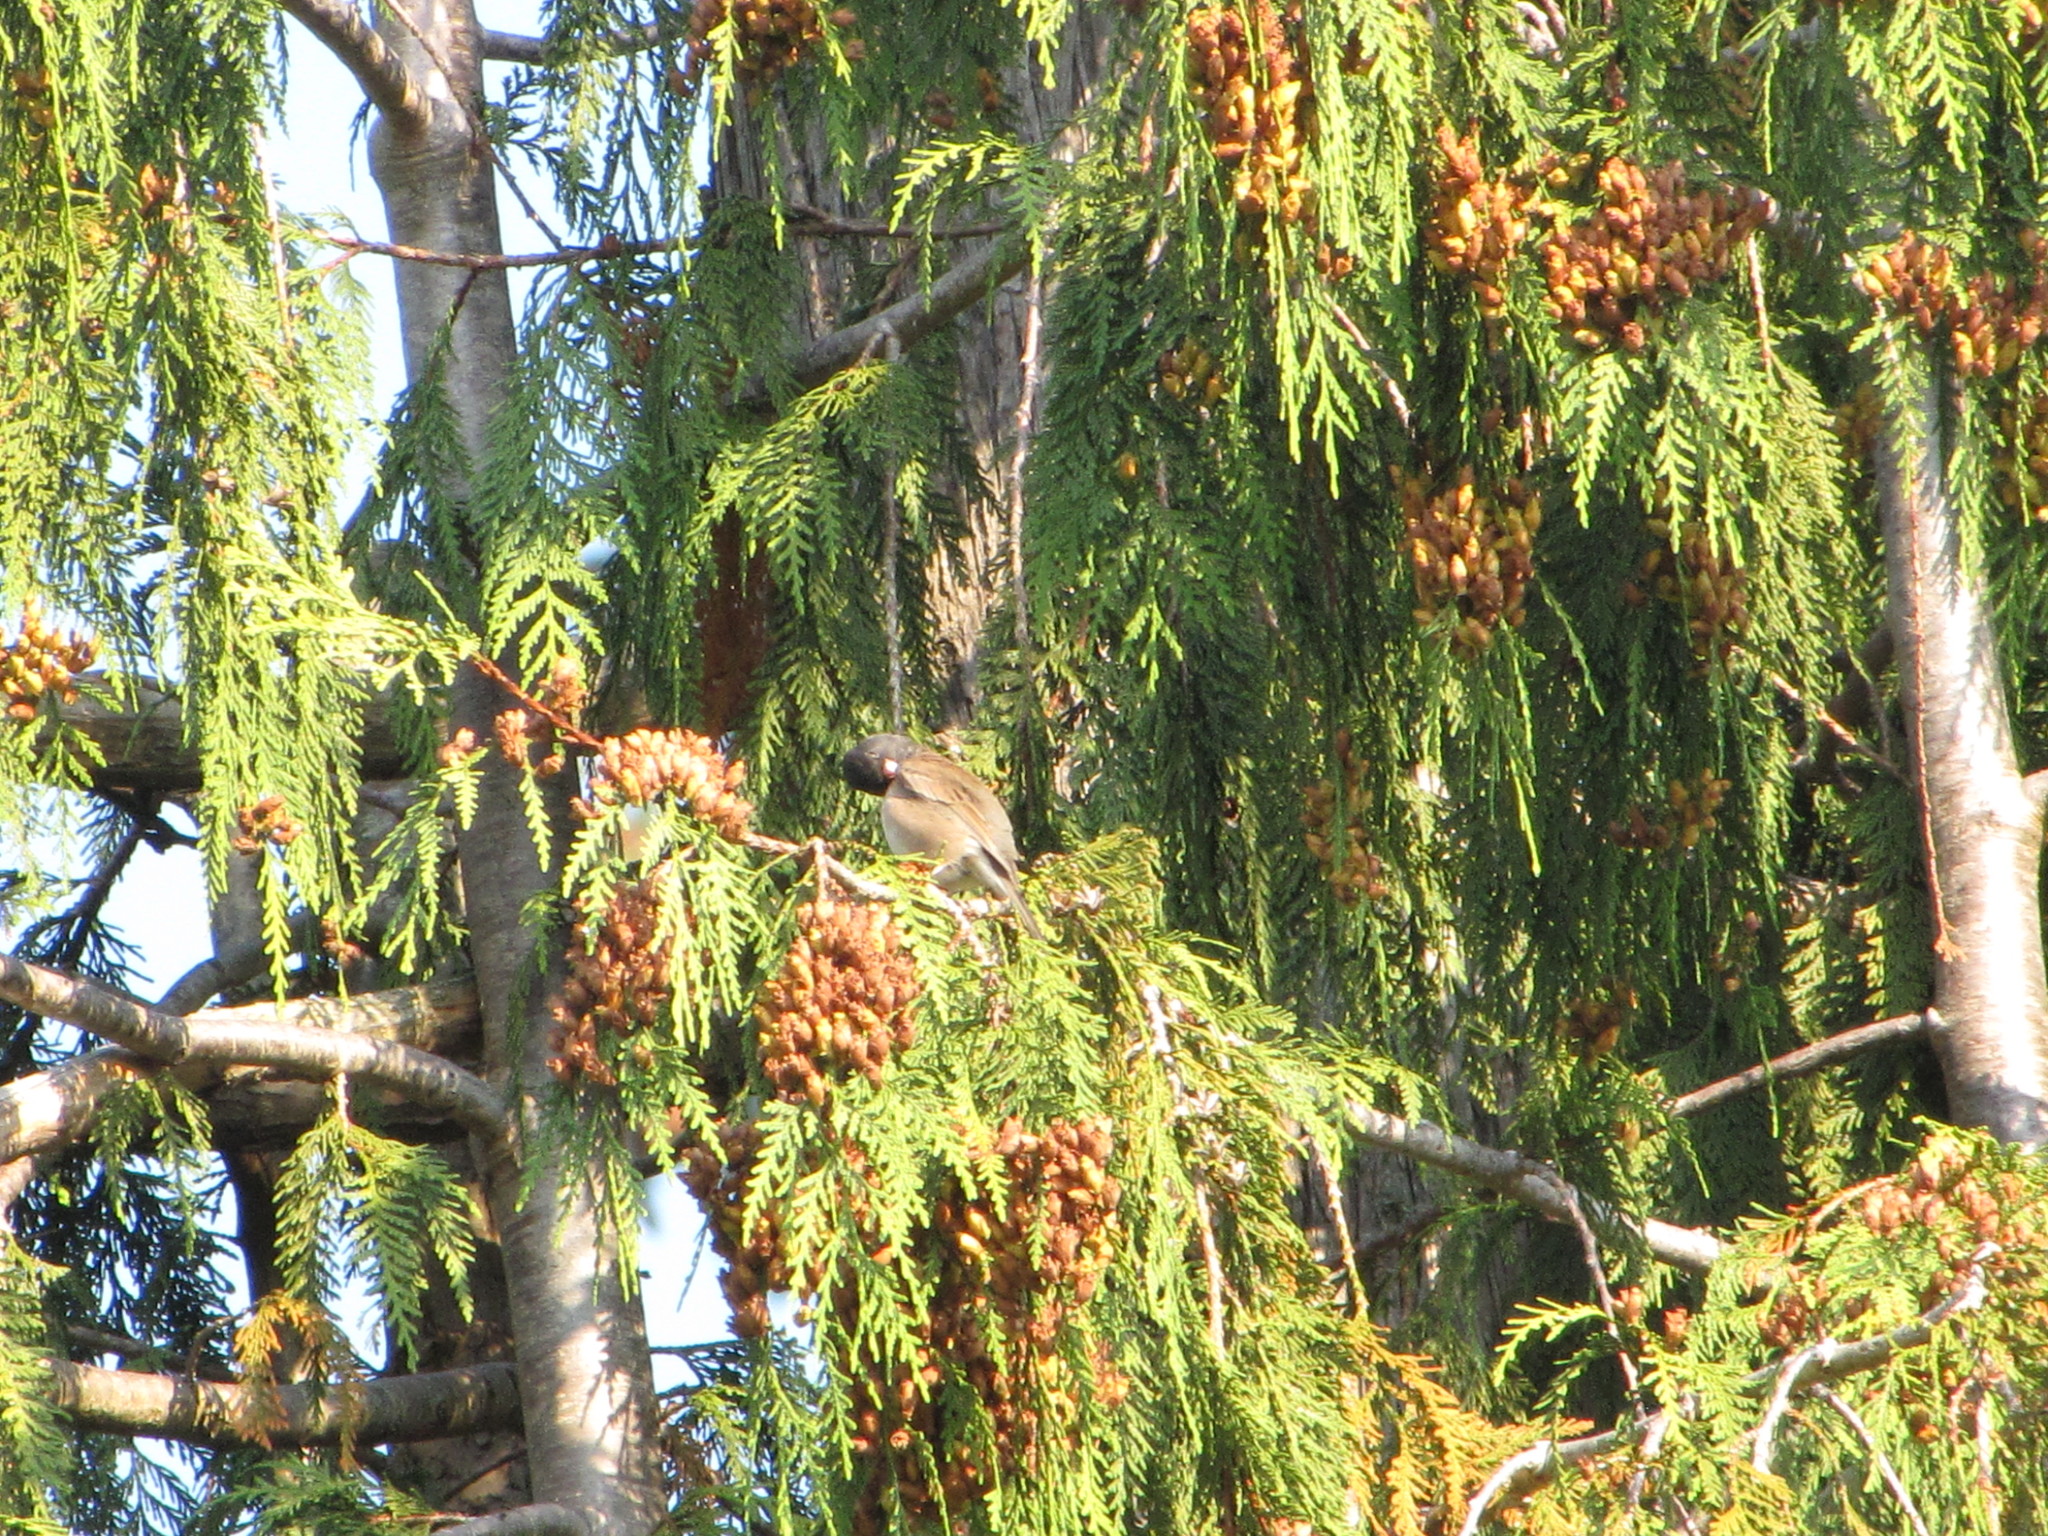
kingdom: Animalia
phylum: Chordata
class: Aves
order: Passeriformes
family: Passerellidae
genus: Junco
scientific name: Junco hyemalis
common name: Dark-eyed junco
